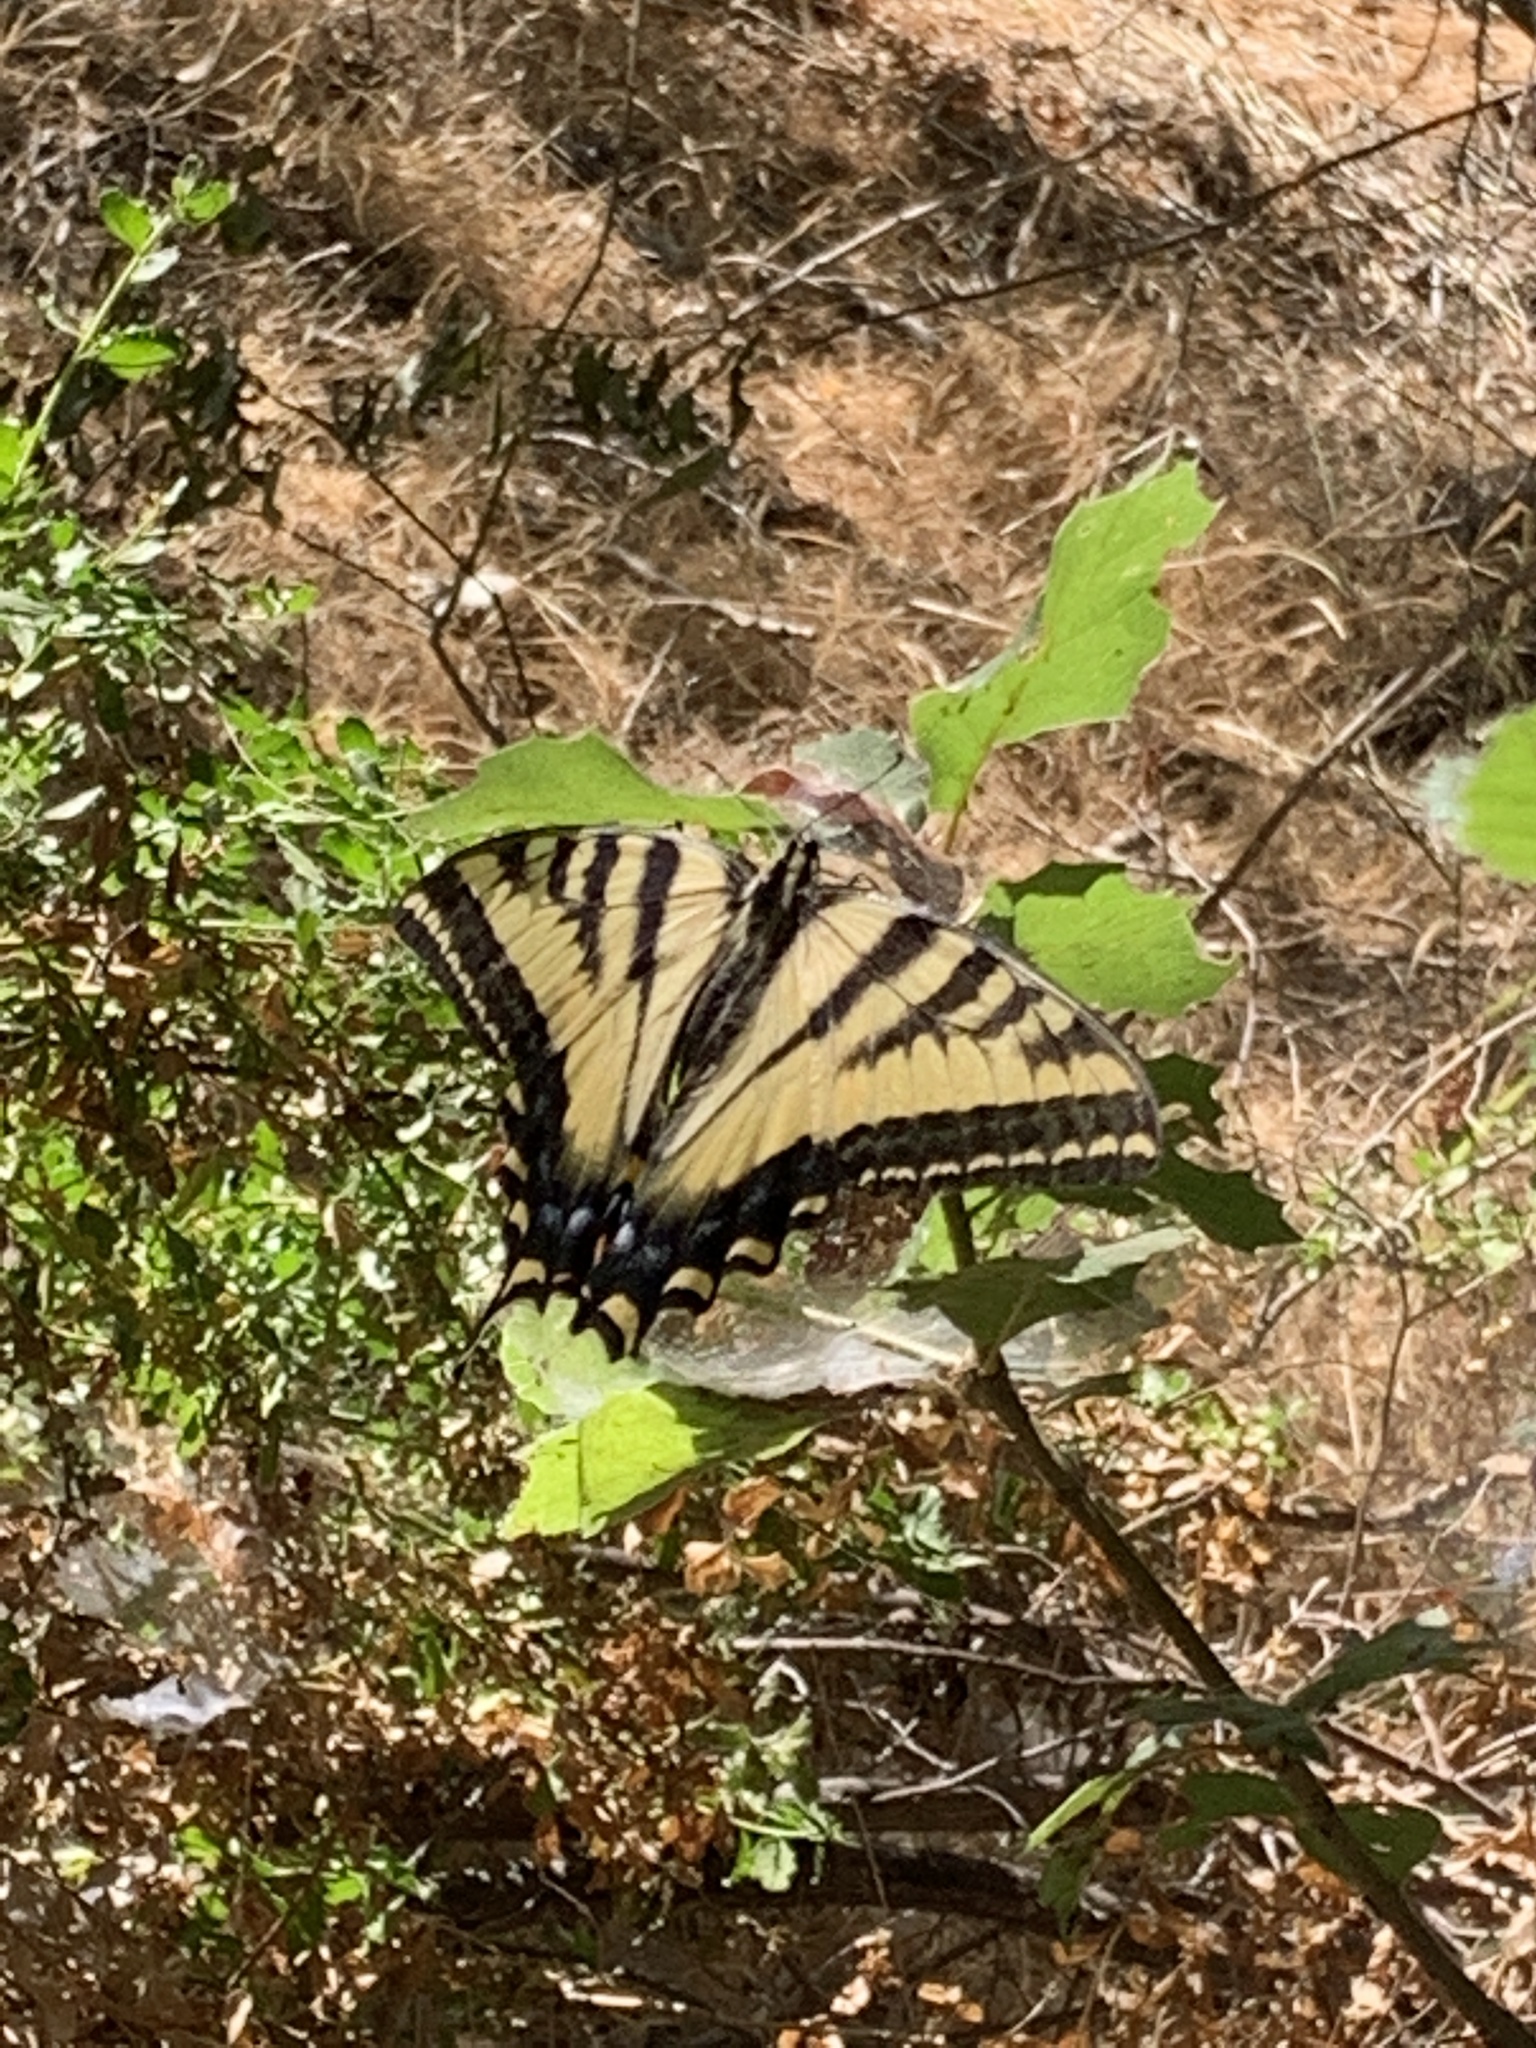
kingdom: Animalia
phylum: Arthropoda
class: Insecta
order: Lepidoptera
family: Papilionidae
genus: Papilio
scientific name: Papilio rutulus
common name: Western tiger swallowtail
